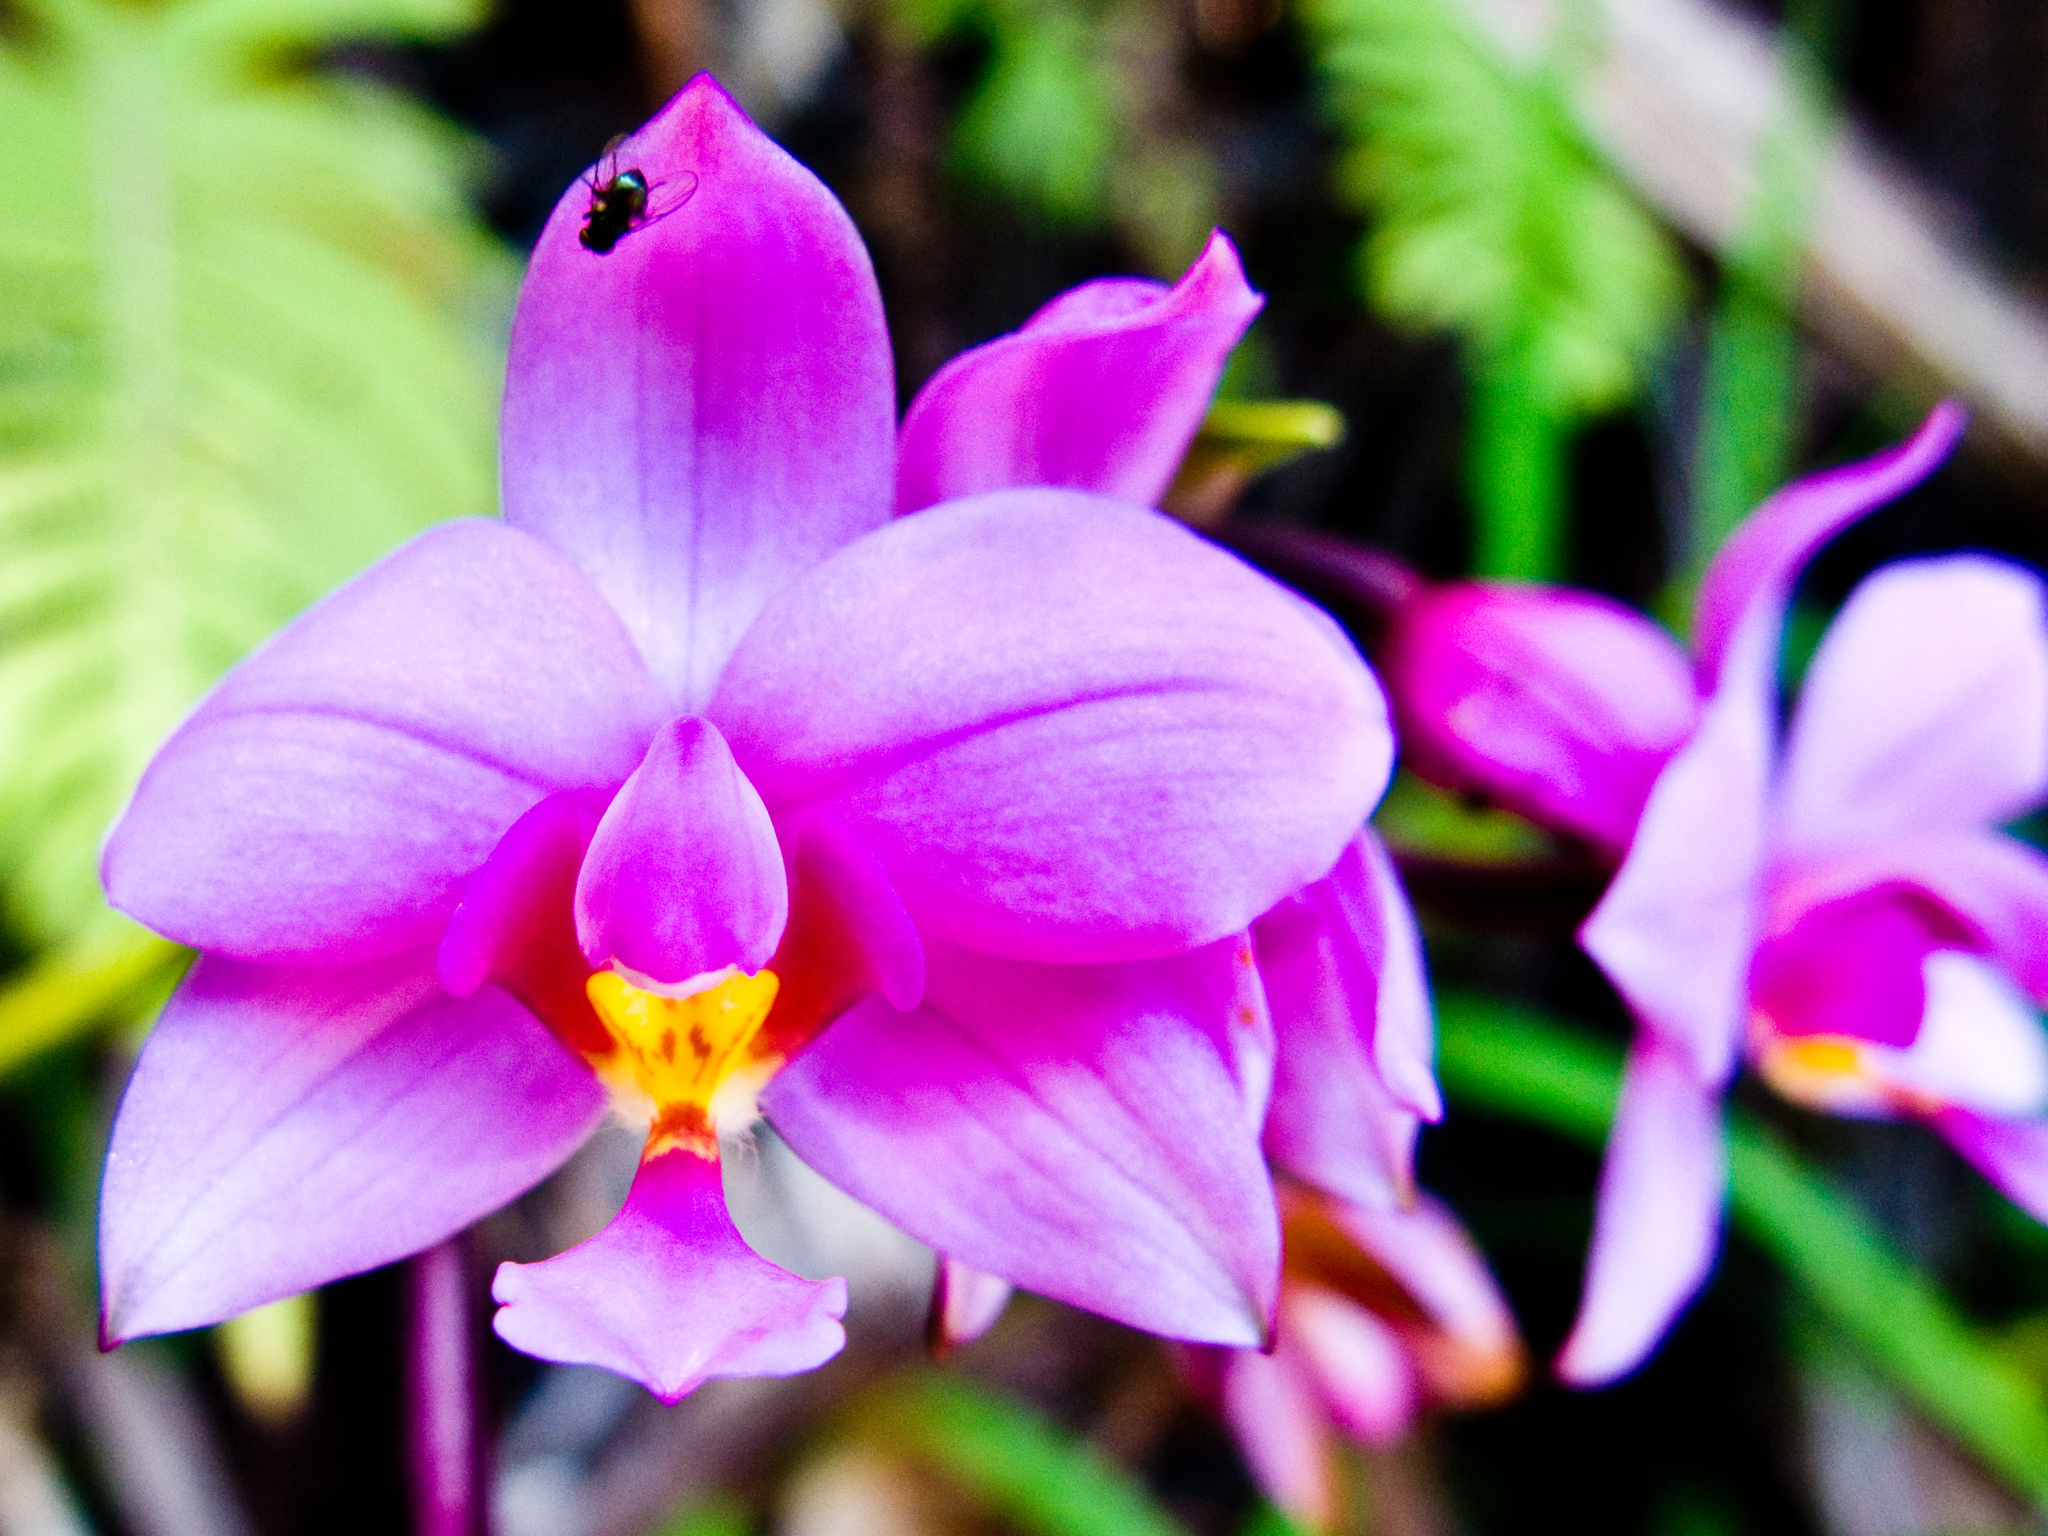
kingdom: Plantae
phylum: Tracheophyta
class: Liliopsida
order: Asparagales
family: Orchidaceae
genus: Spathoglottis
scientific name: Spathoglottis plicata
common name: Philippine ground orchid
